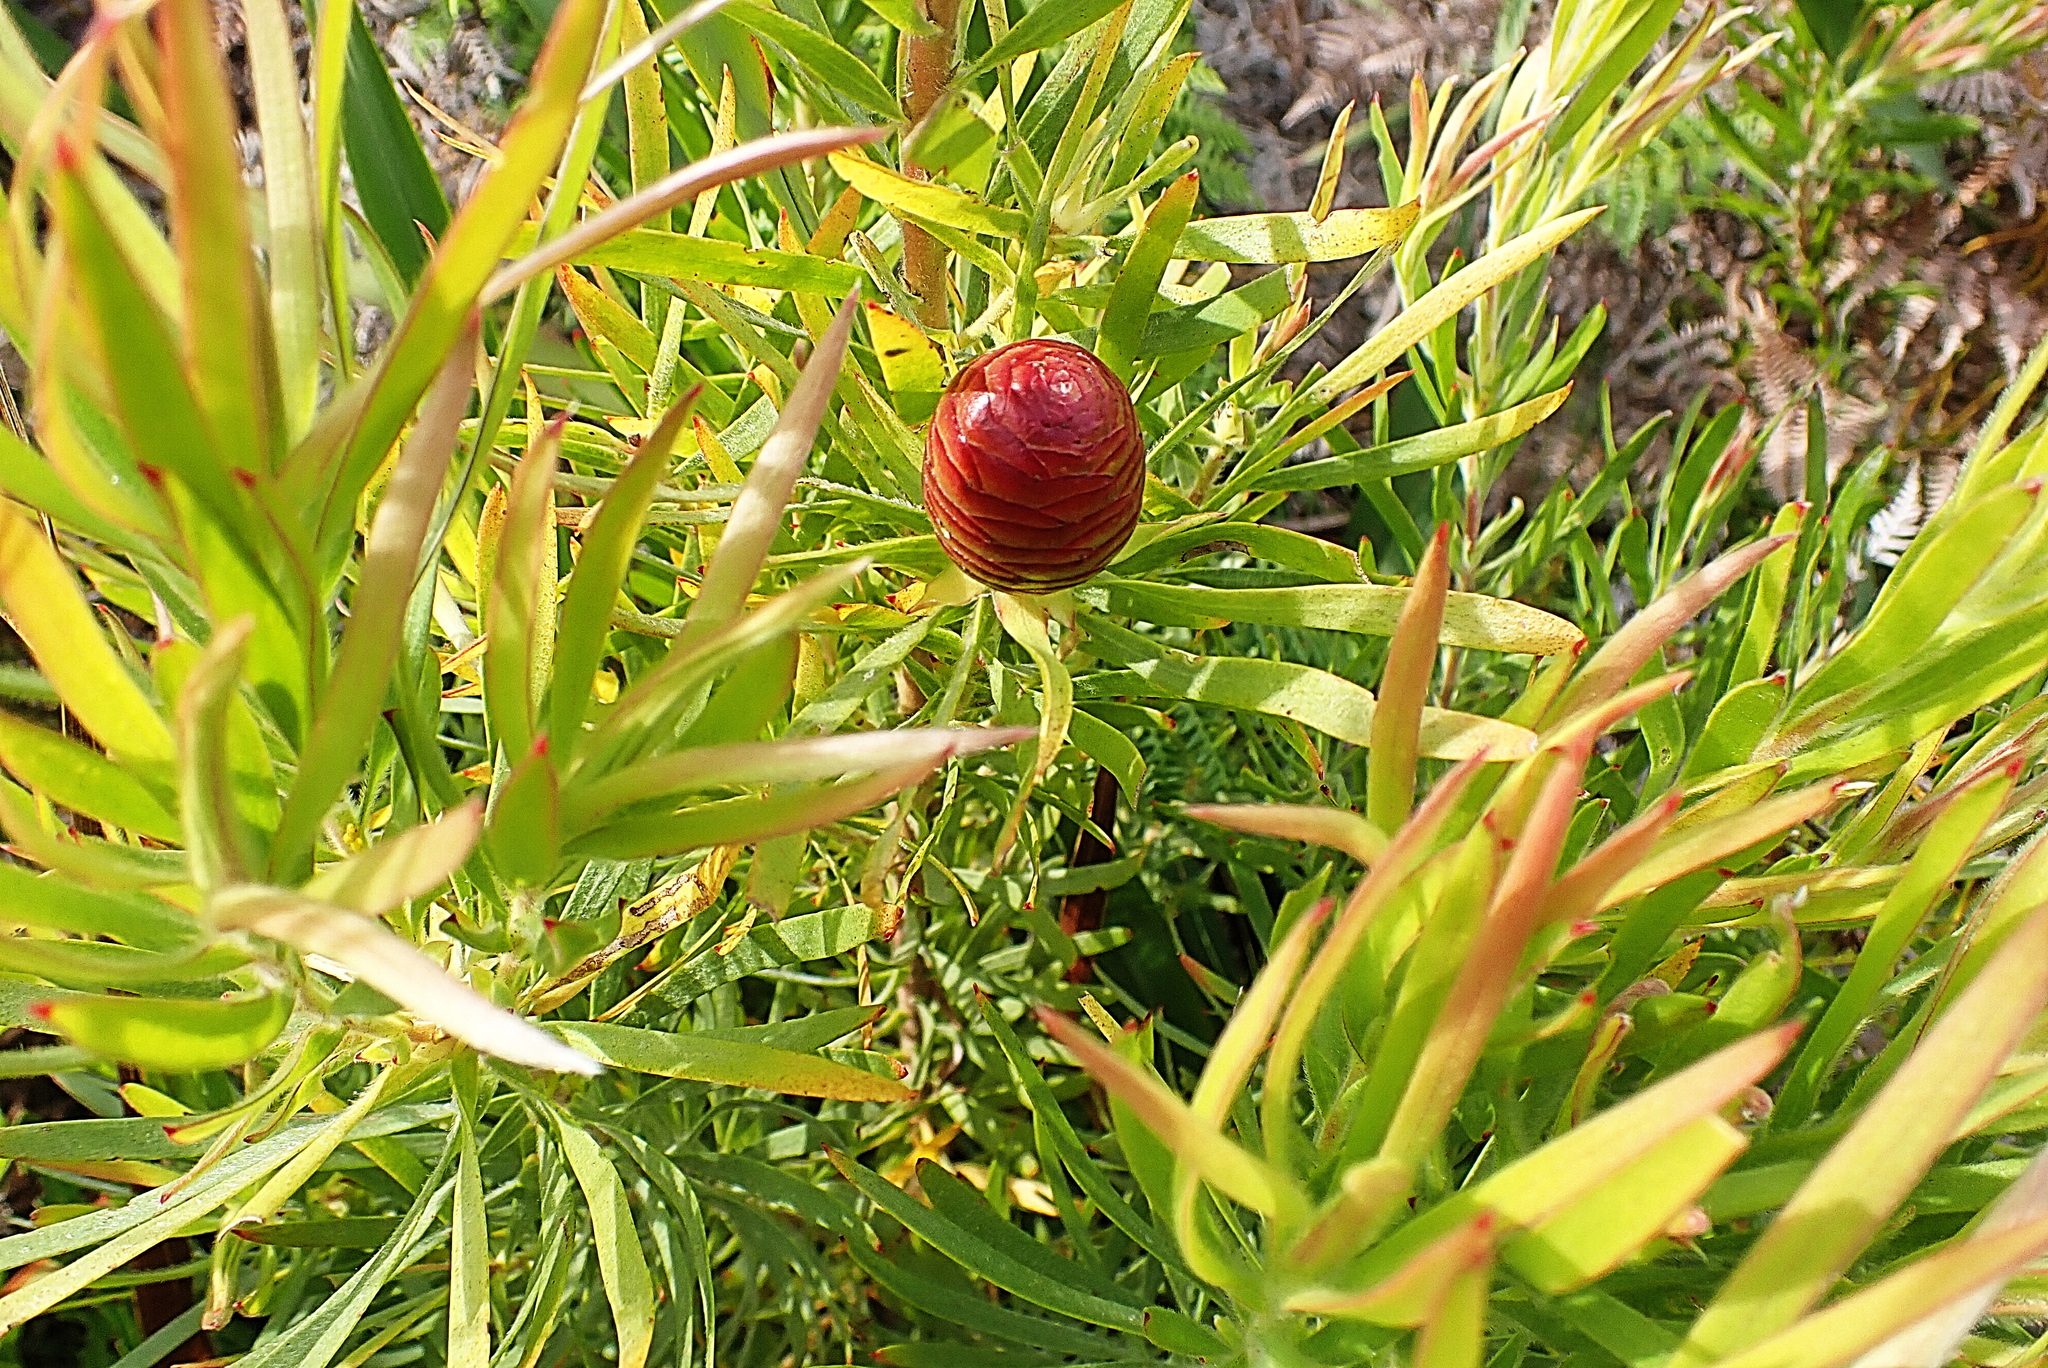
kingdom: Plantae
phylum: Tracheophyta
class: Magnoliopsida
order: Proteales
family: Proteaceae
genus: Leucadendron
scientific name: Leucadendron eucalyptifolium
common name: Gum-leaved conebush
